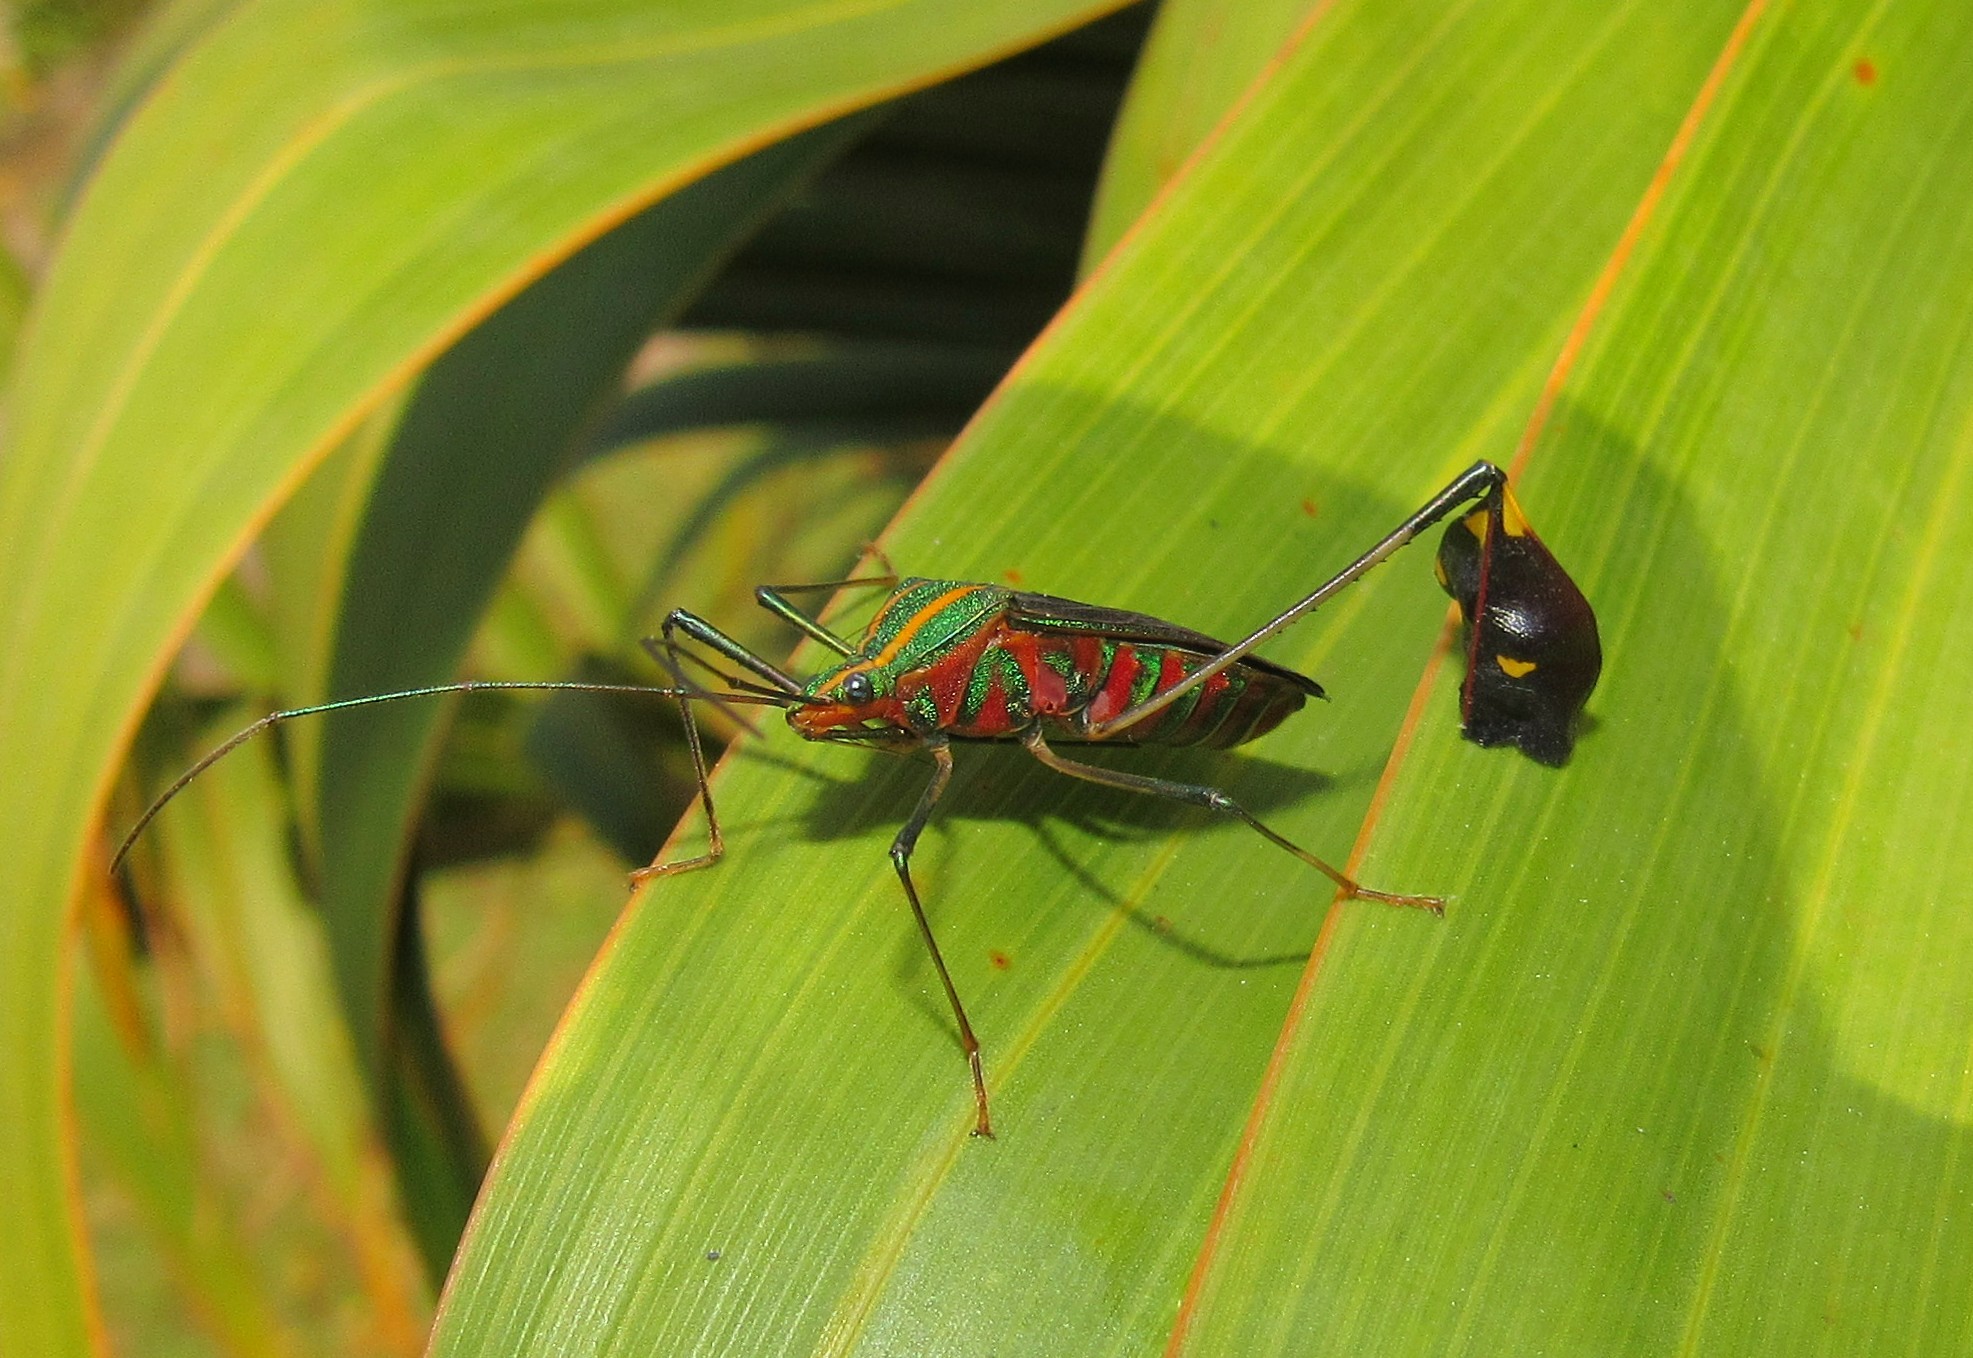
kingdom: Animalia
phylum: Arthropoda
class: Insecta
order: Hemiptera
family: Coreidae
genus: Diactor
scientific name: Diactor bilineatus
